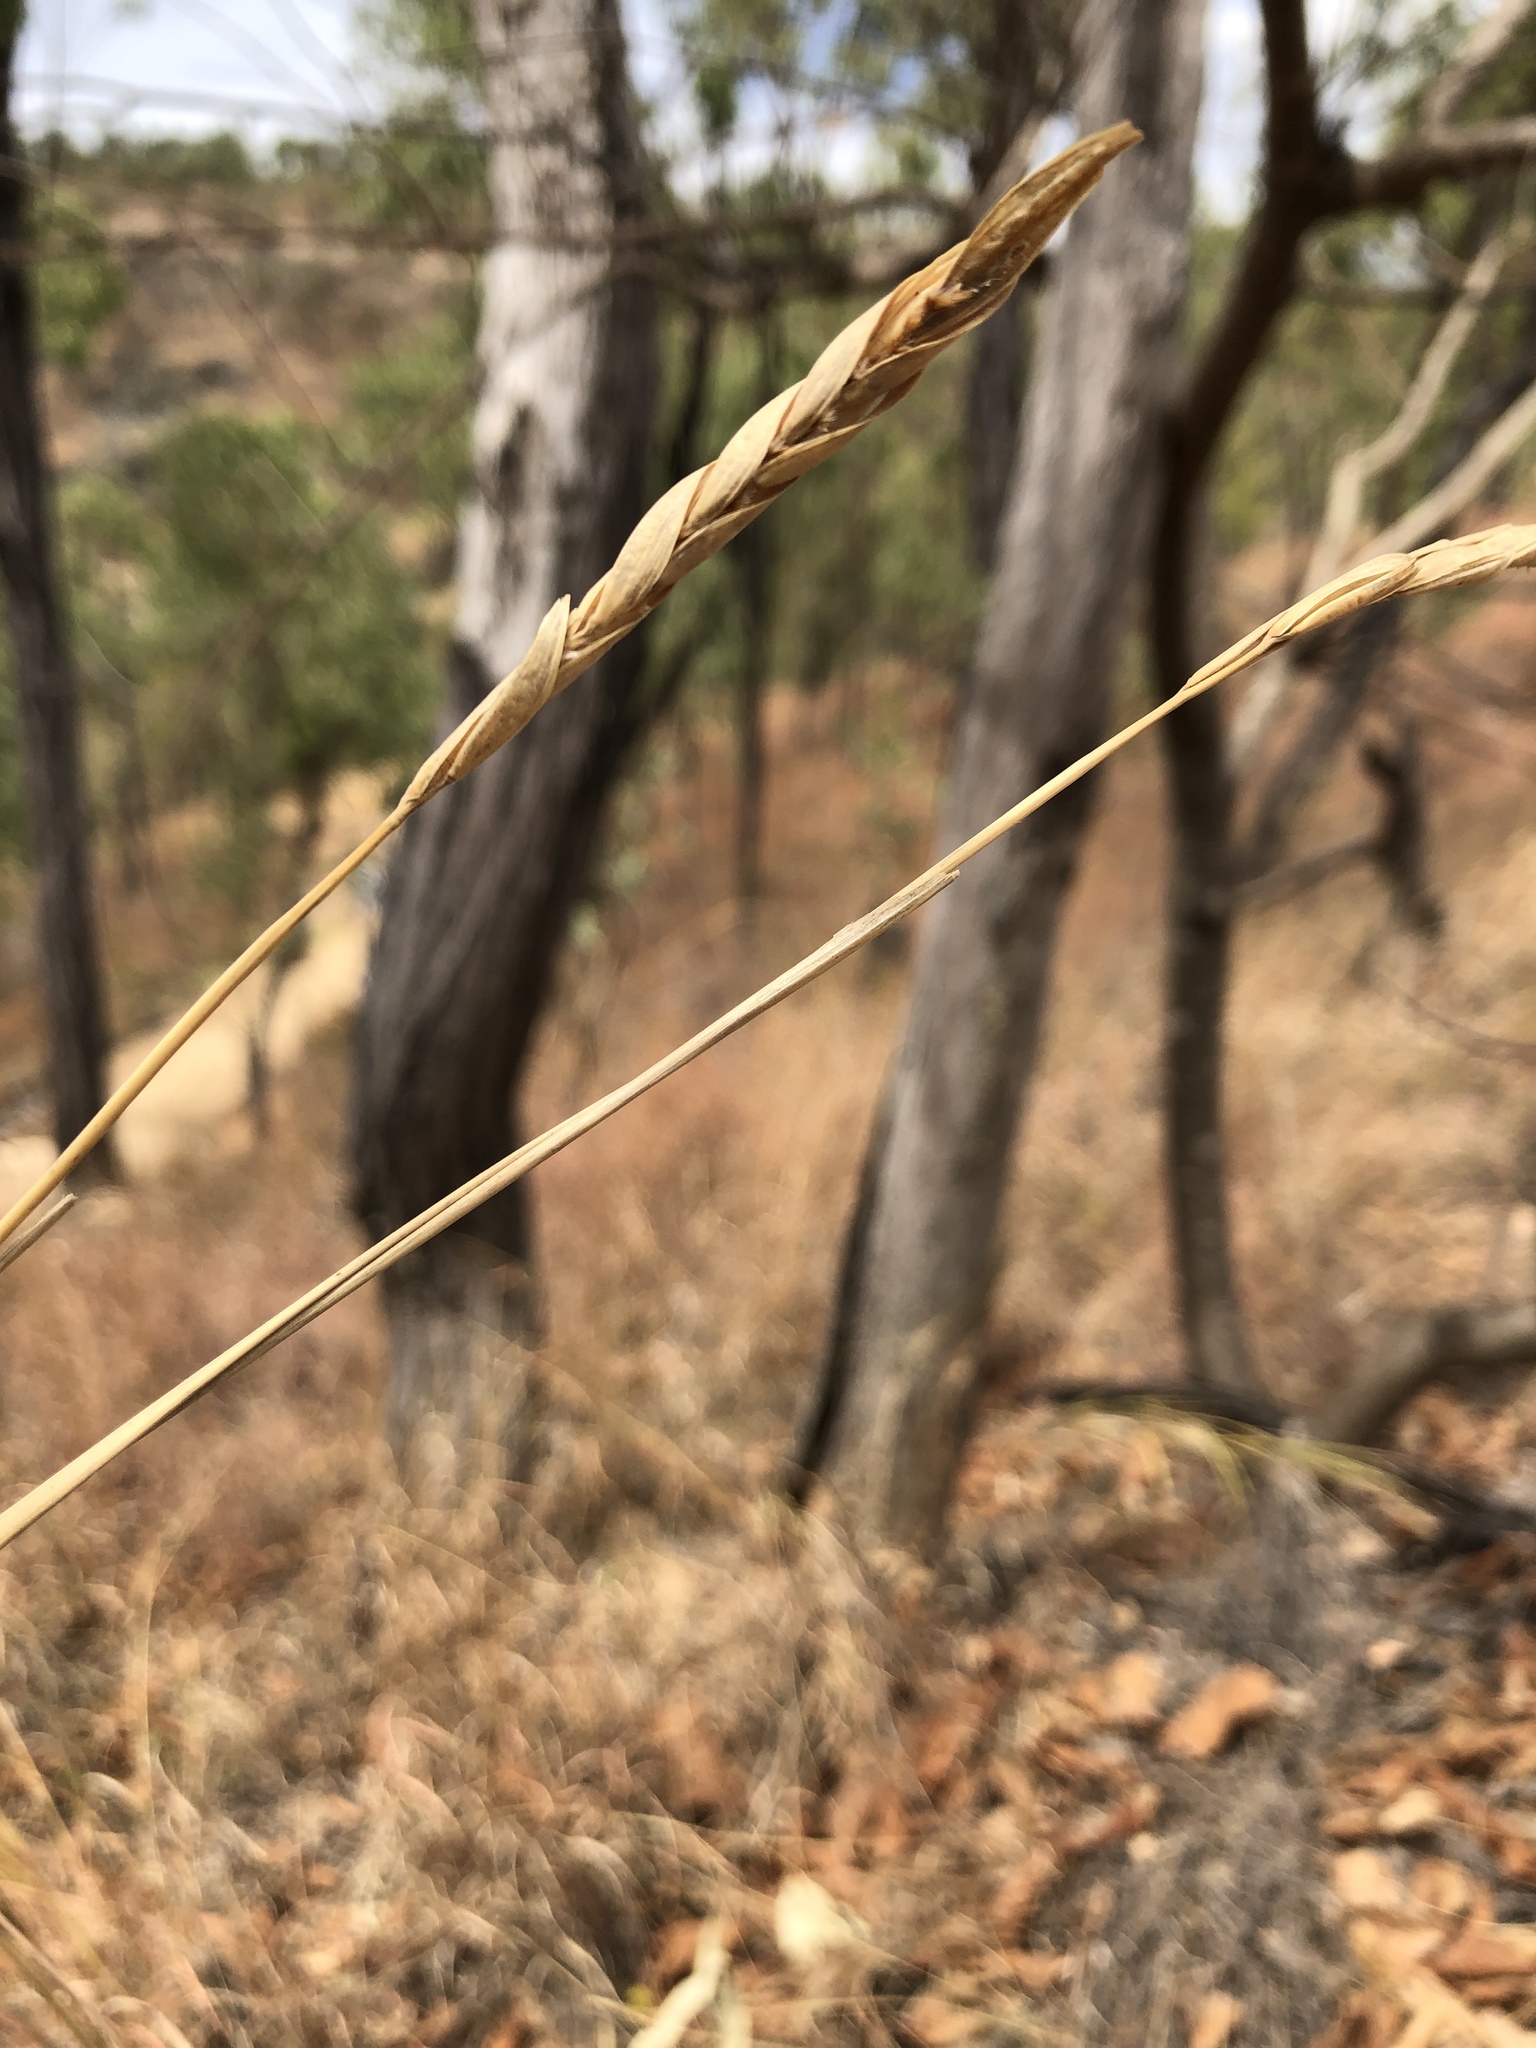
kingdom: Plantae
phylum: Tracheophyta
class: Liliopsida
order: Poales
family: Poaceae
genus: Heteropogon
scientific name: Heteropogon triticeus
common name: Sugar grass
